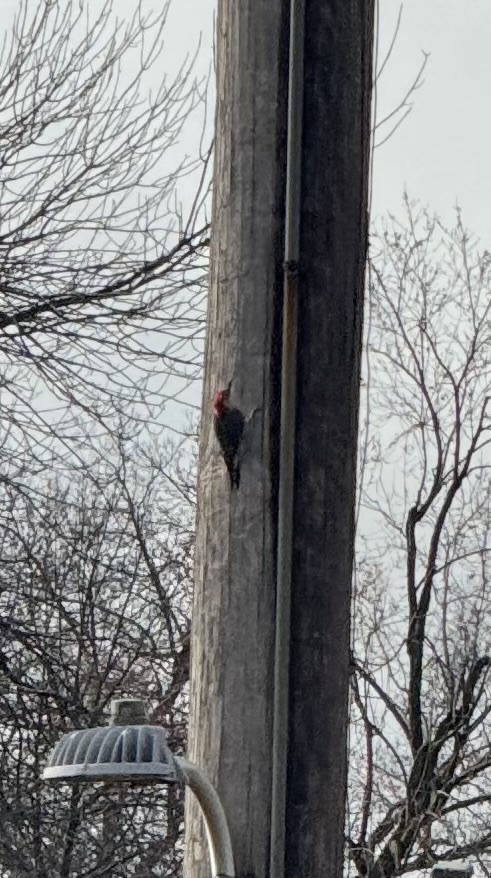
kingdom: Animalia
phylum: Chordata
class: Aves
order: Piciformes
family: Picidae
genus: Melanerpes
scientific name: Melanerpes carolinus
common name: Red-bellied woodpecker
